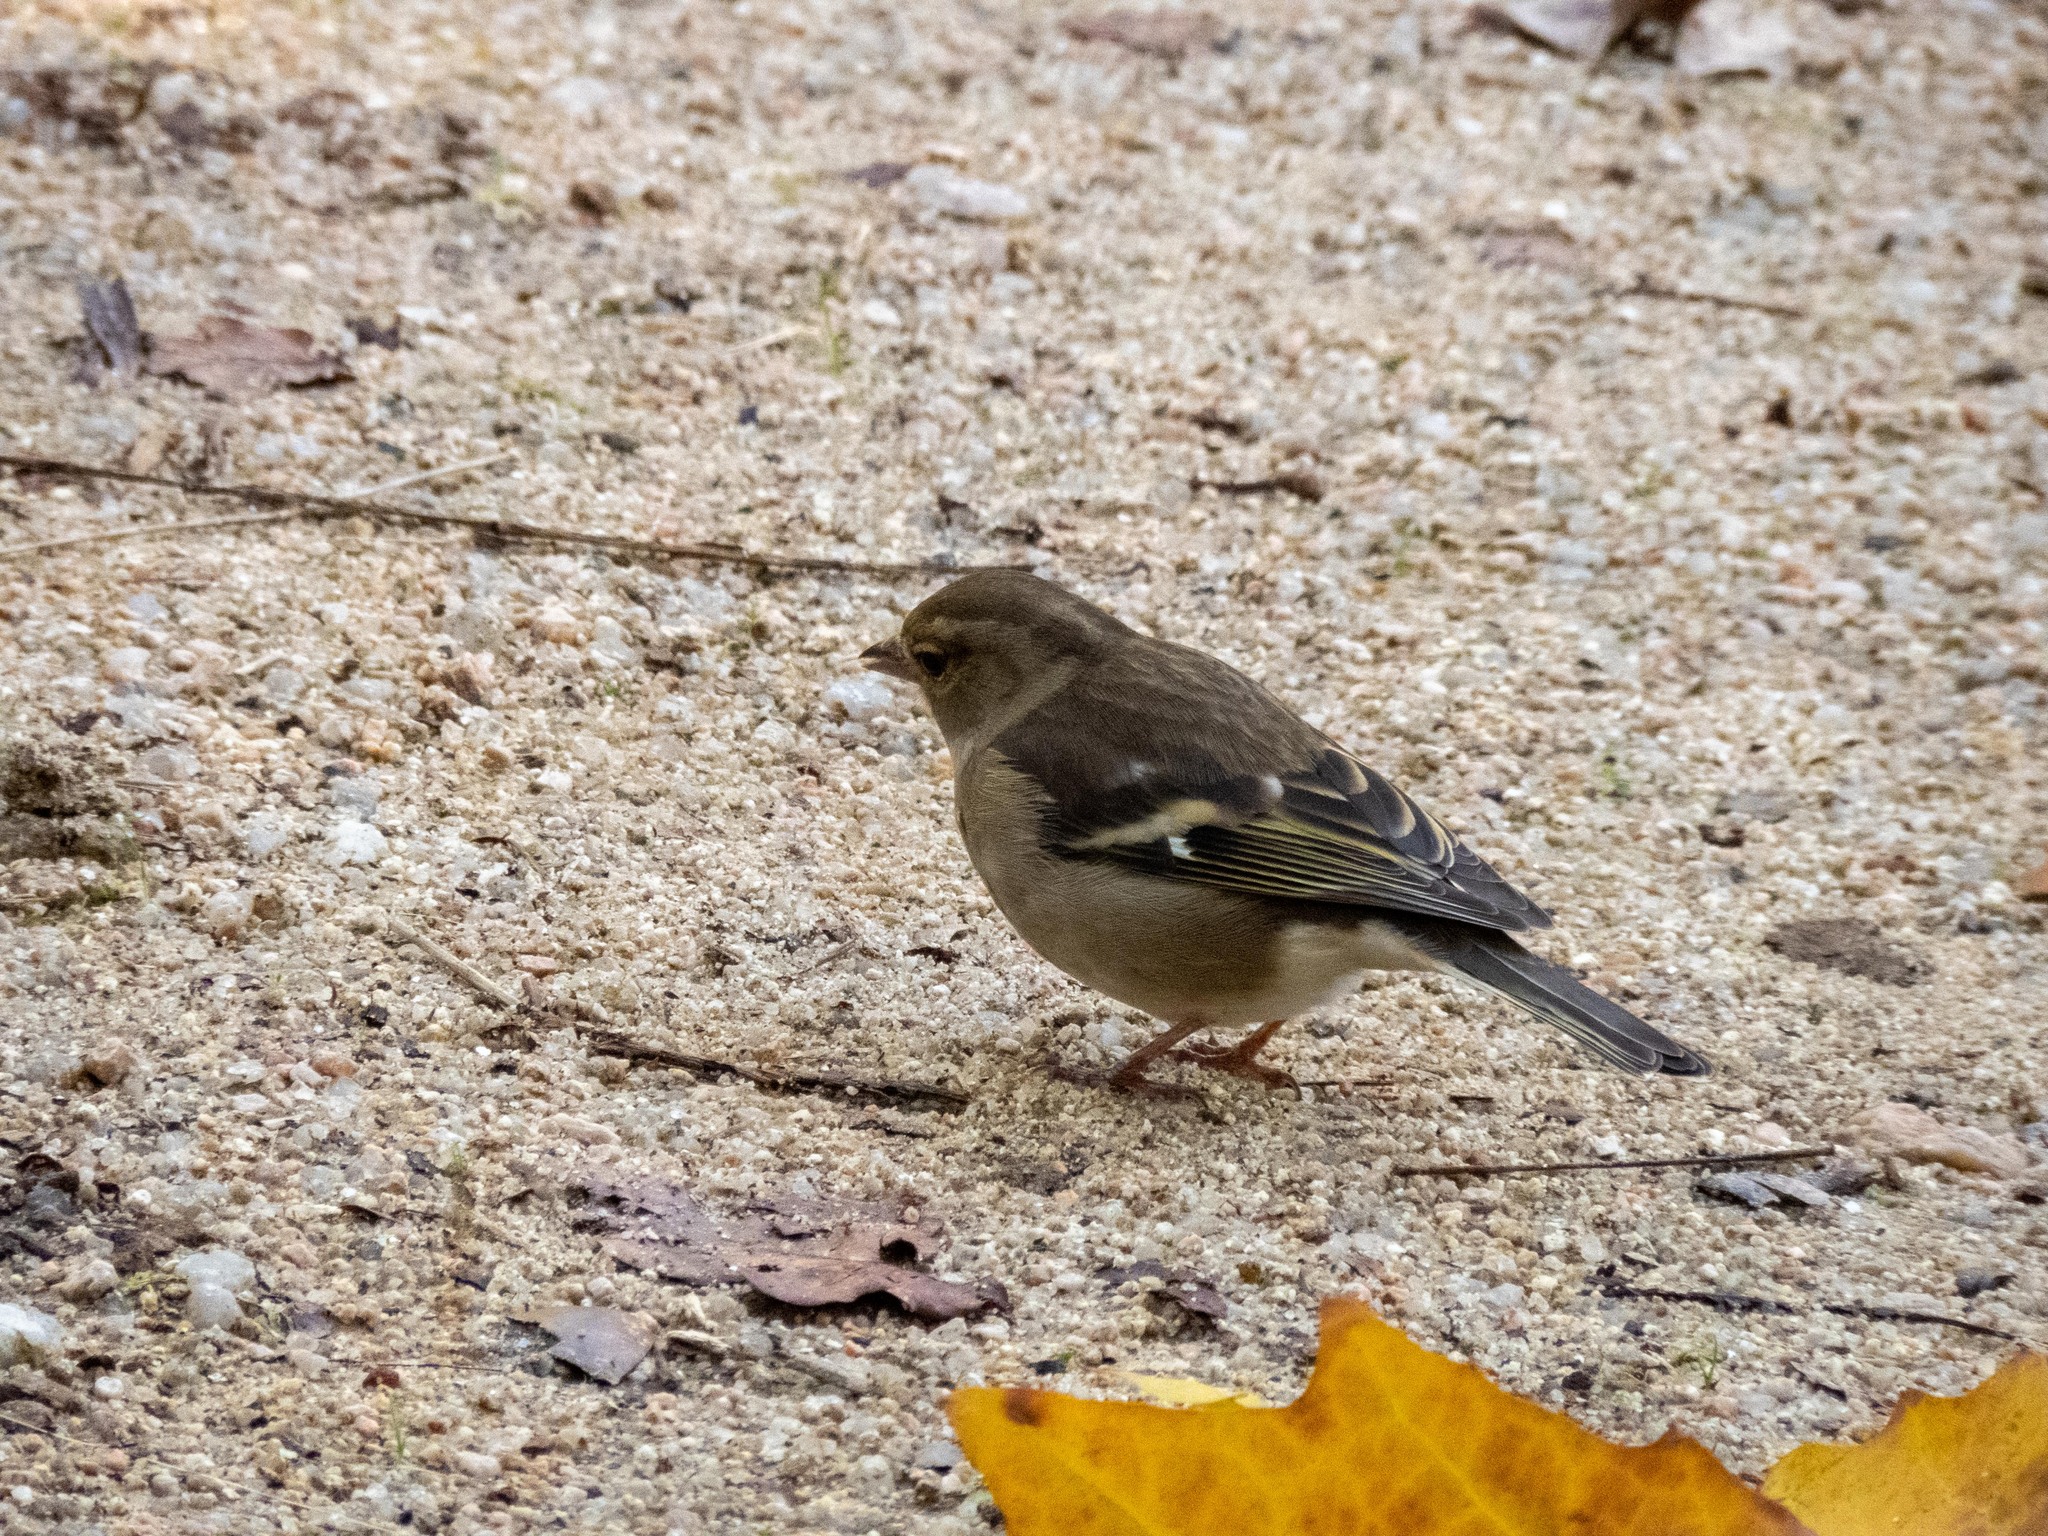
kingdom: Animalia
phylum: Chordata
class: Aves
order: Passeriformes
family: Fringillidae
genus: Fringilla
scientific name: Fringilla coelebs
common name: Common chaffinch
